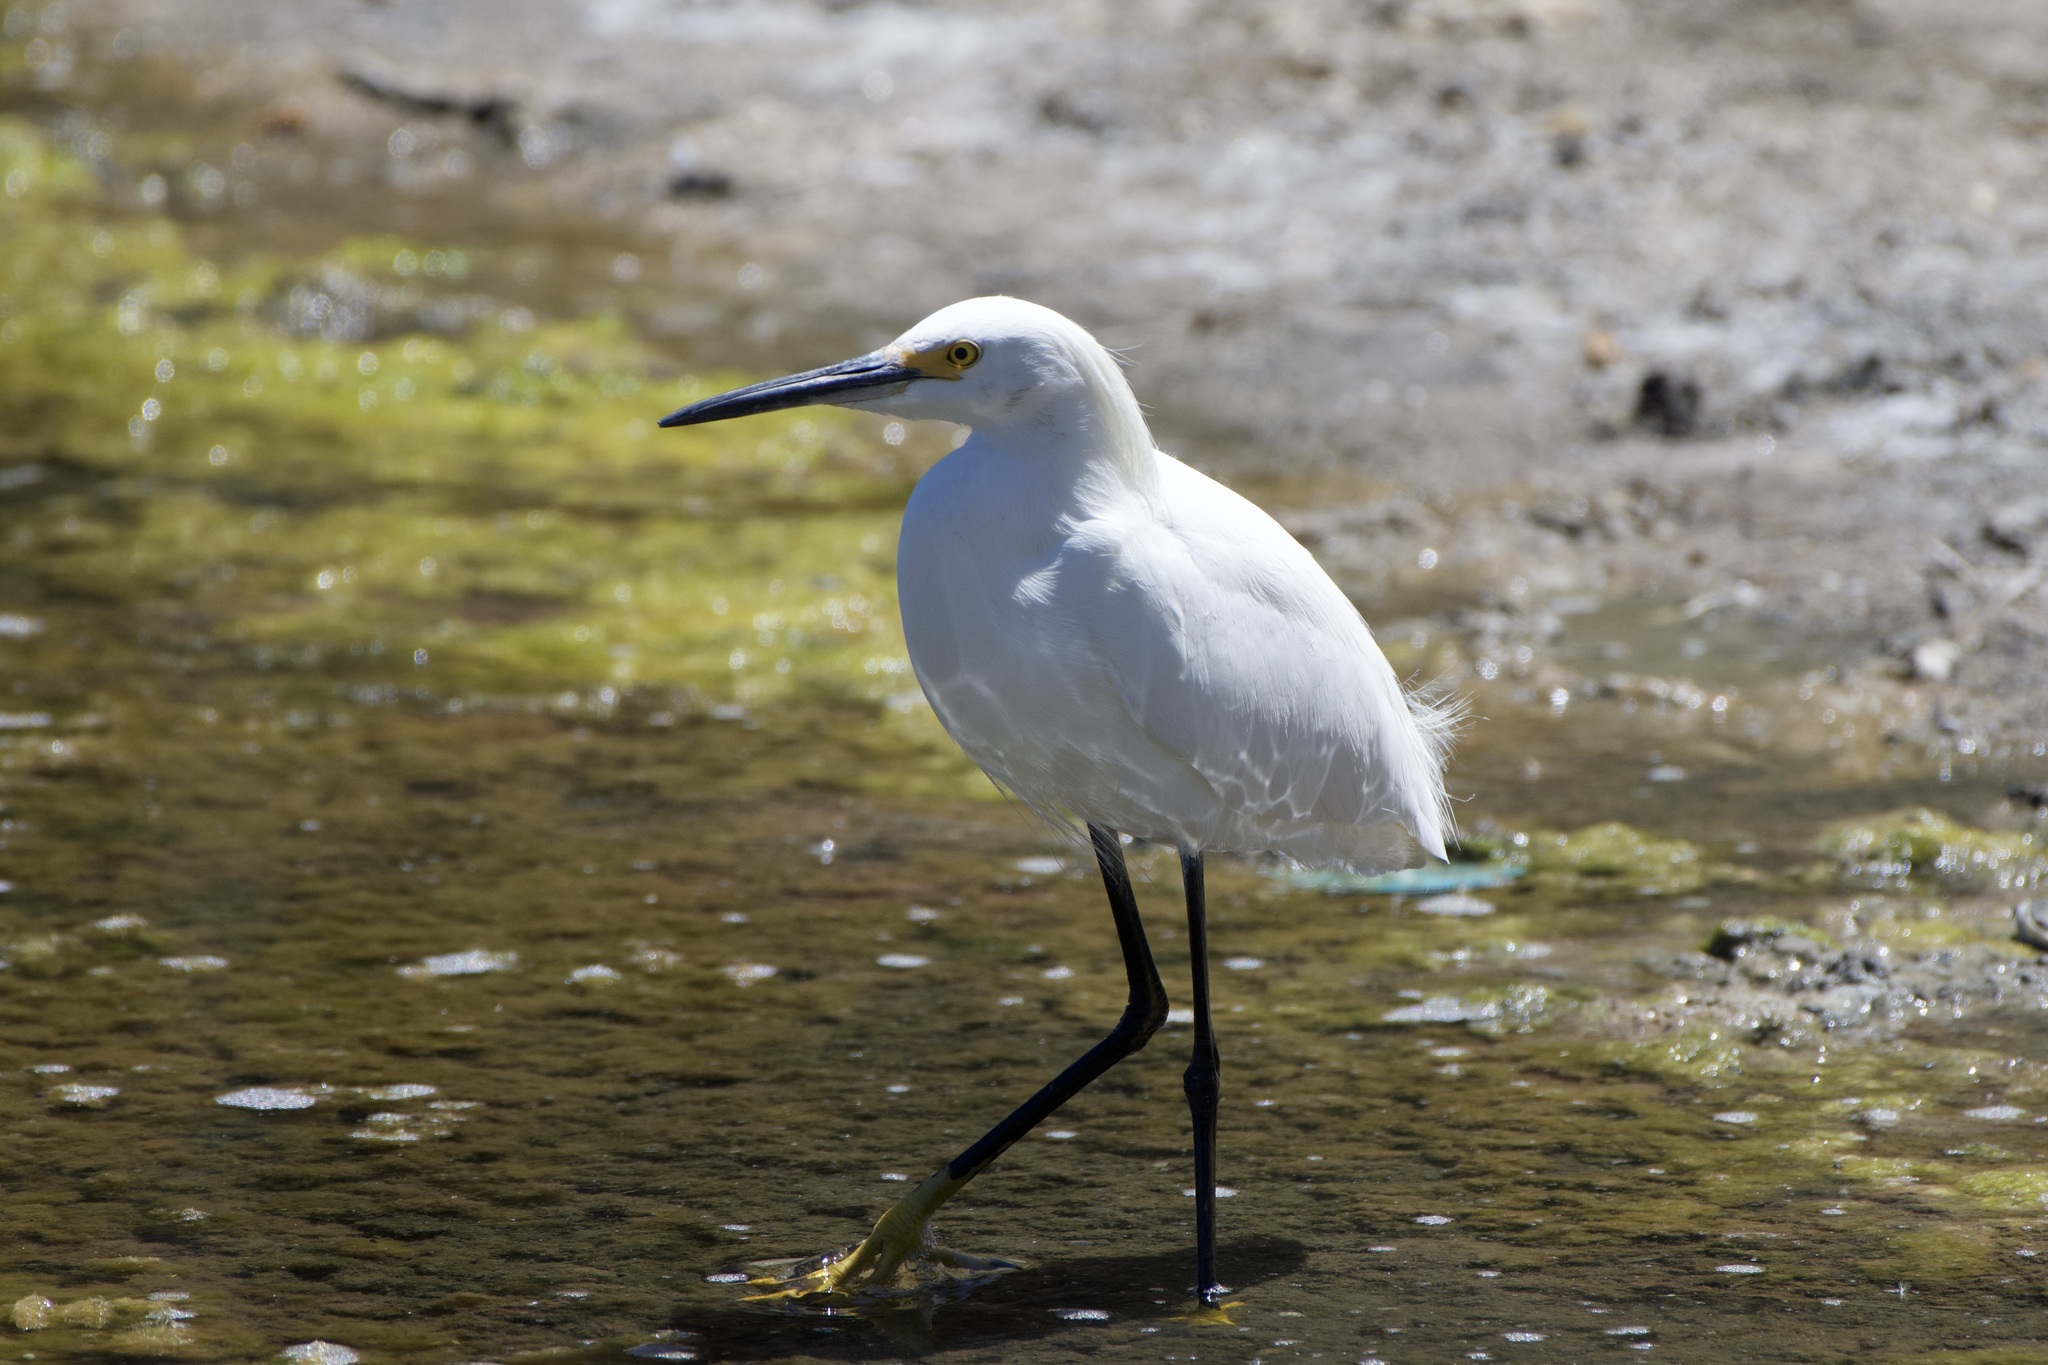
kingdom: Animalia
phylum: Chordata
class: Aves
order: Pelecaniformes
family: Ardeidae
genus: Egretta
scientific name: Egretta thula
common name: Snowy egret
